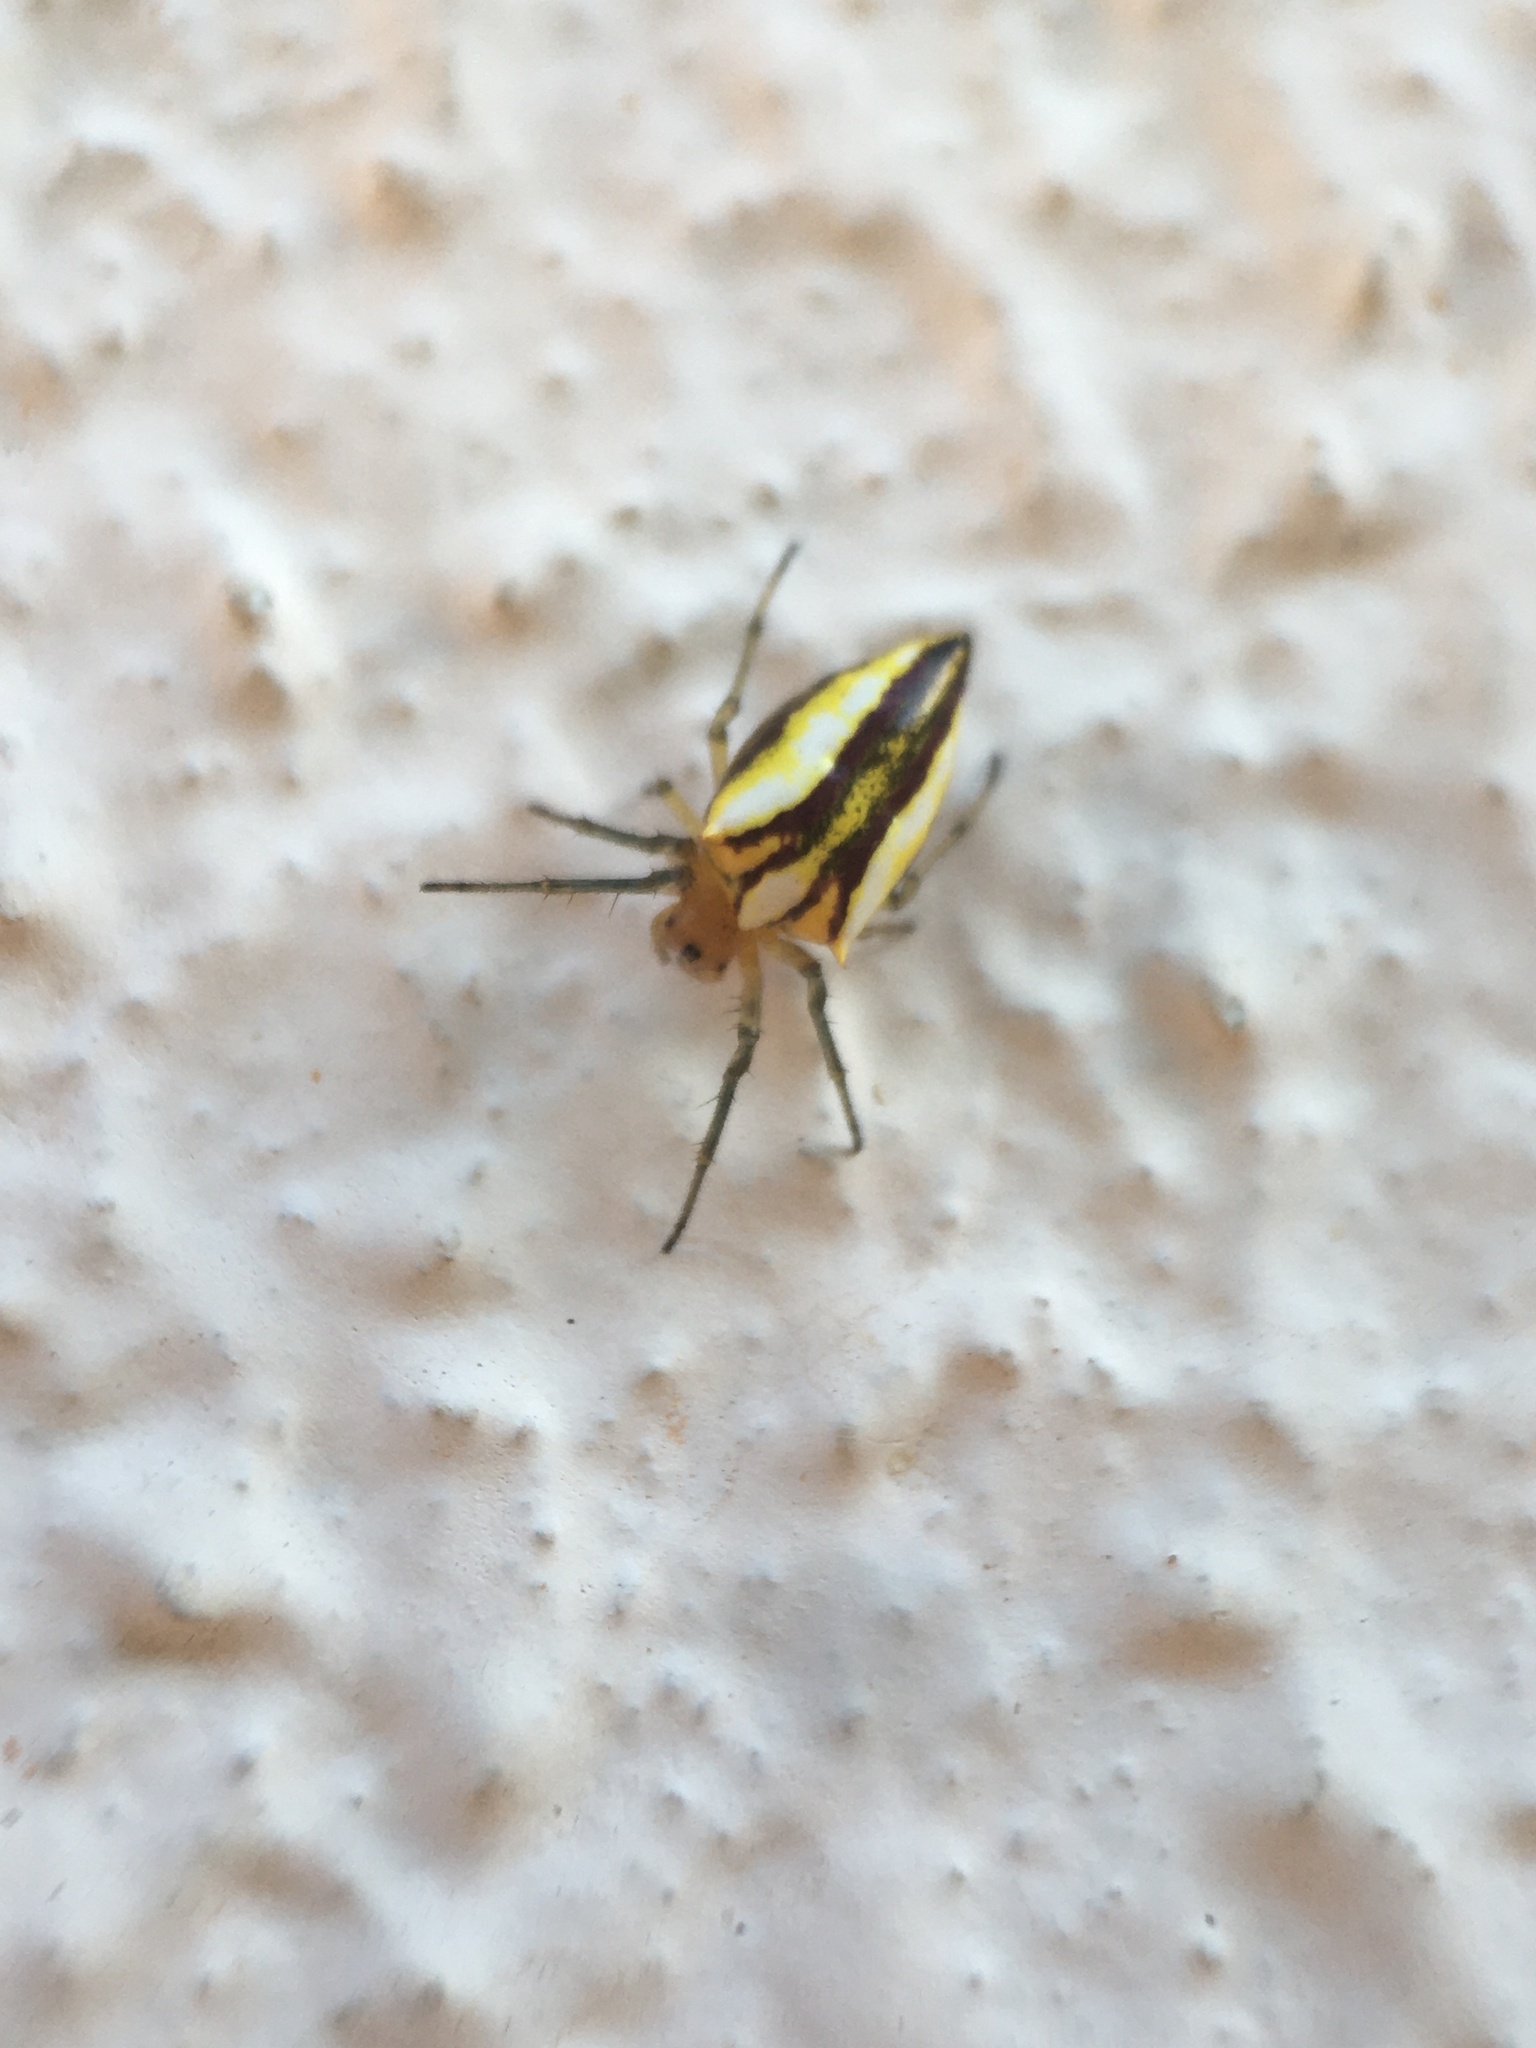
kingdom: Animalia
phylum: Arthropoda
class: Arachnida
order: Araneae
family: Araneidae
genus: Alpaida
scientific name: Alpaida bicornuta
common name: Orb weavers
